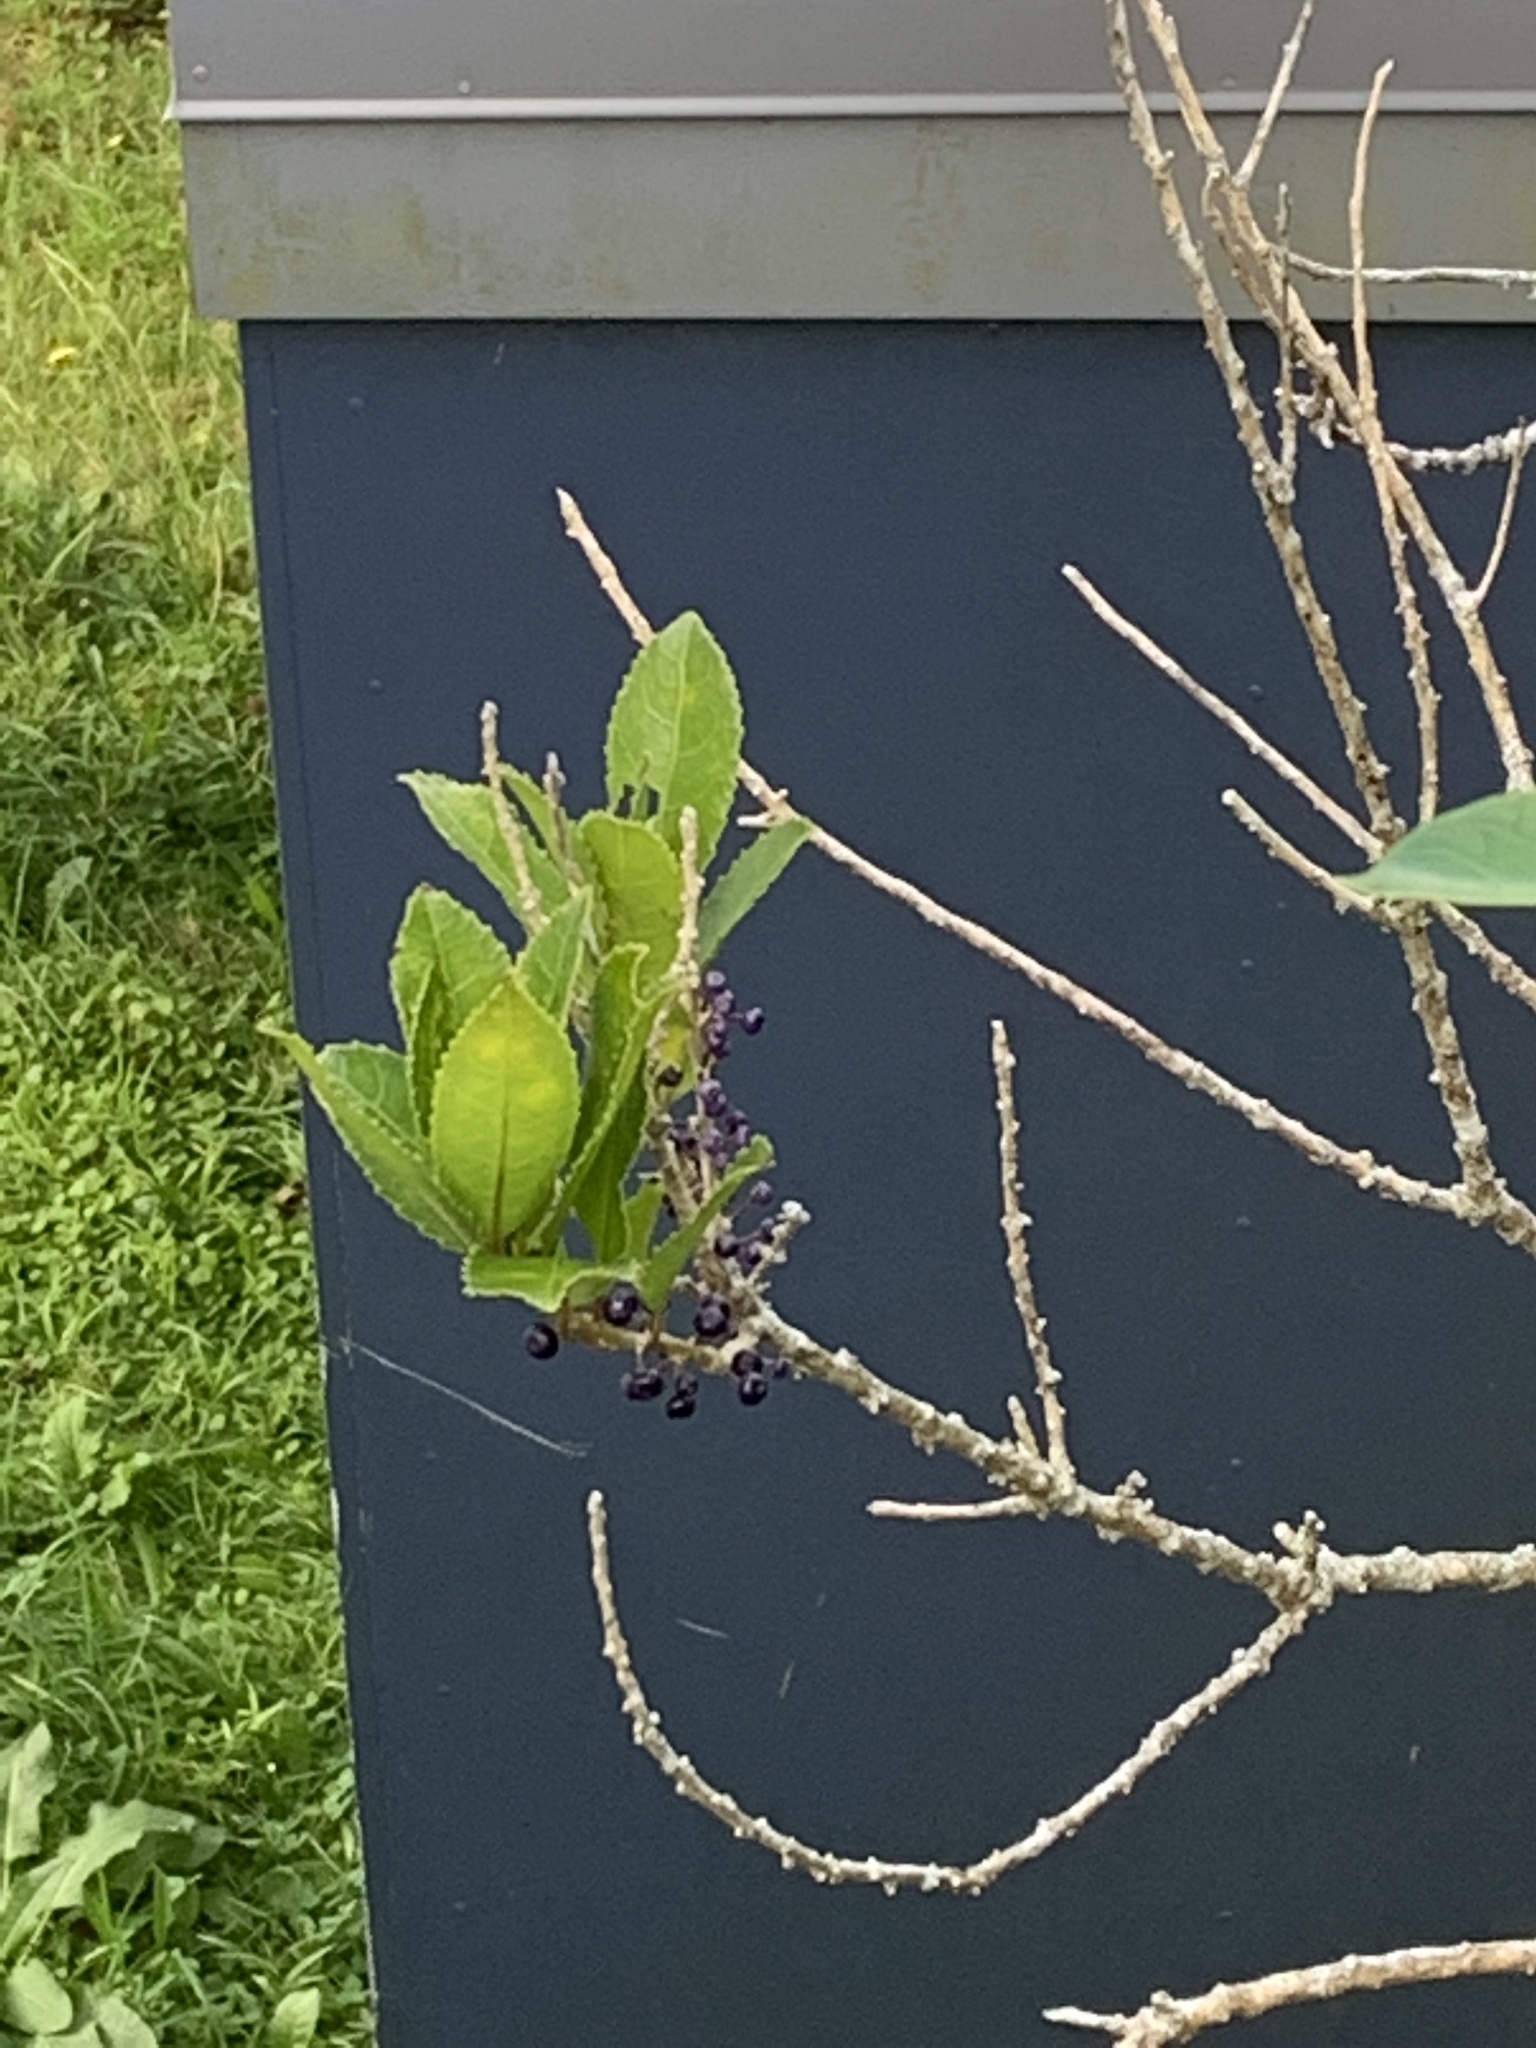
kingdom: Plantae
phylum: Tracheophyta
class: Magnoliopsida
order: Gentianales
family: Rubiaceae
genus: Coprosma
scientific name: Coprosma robusta
